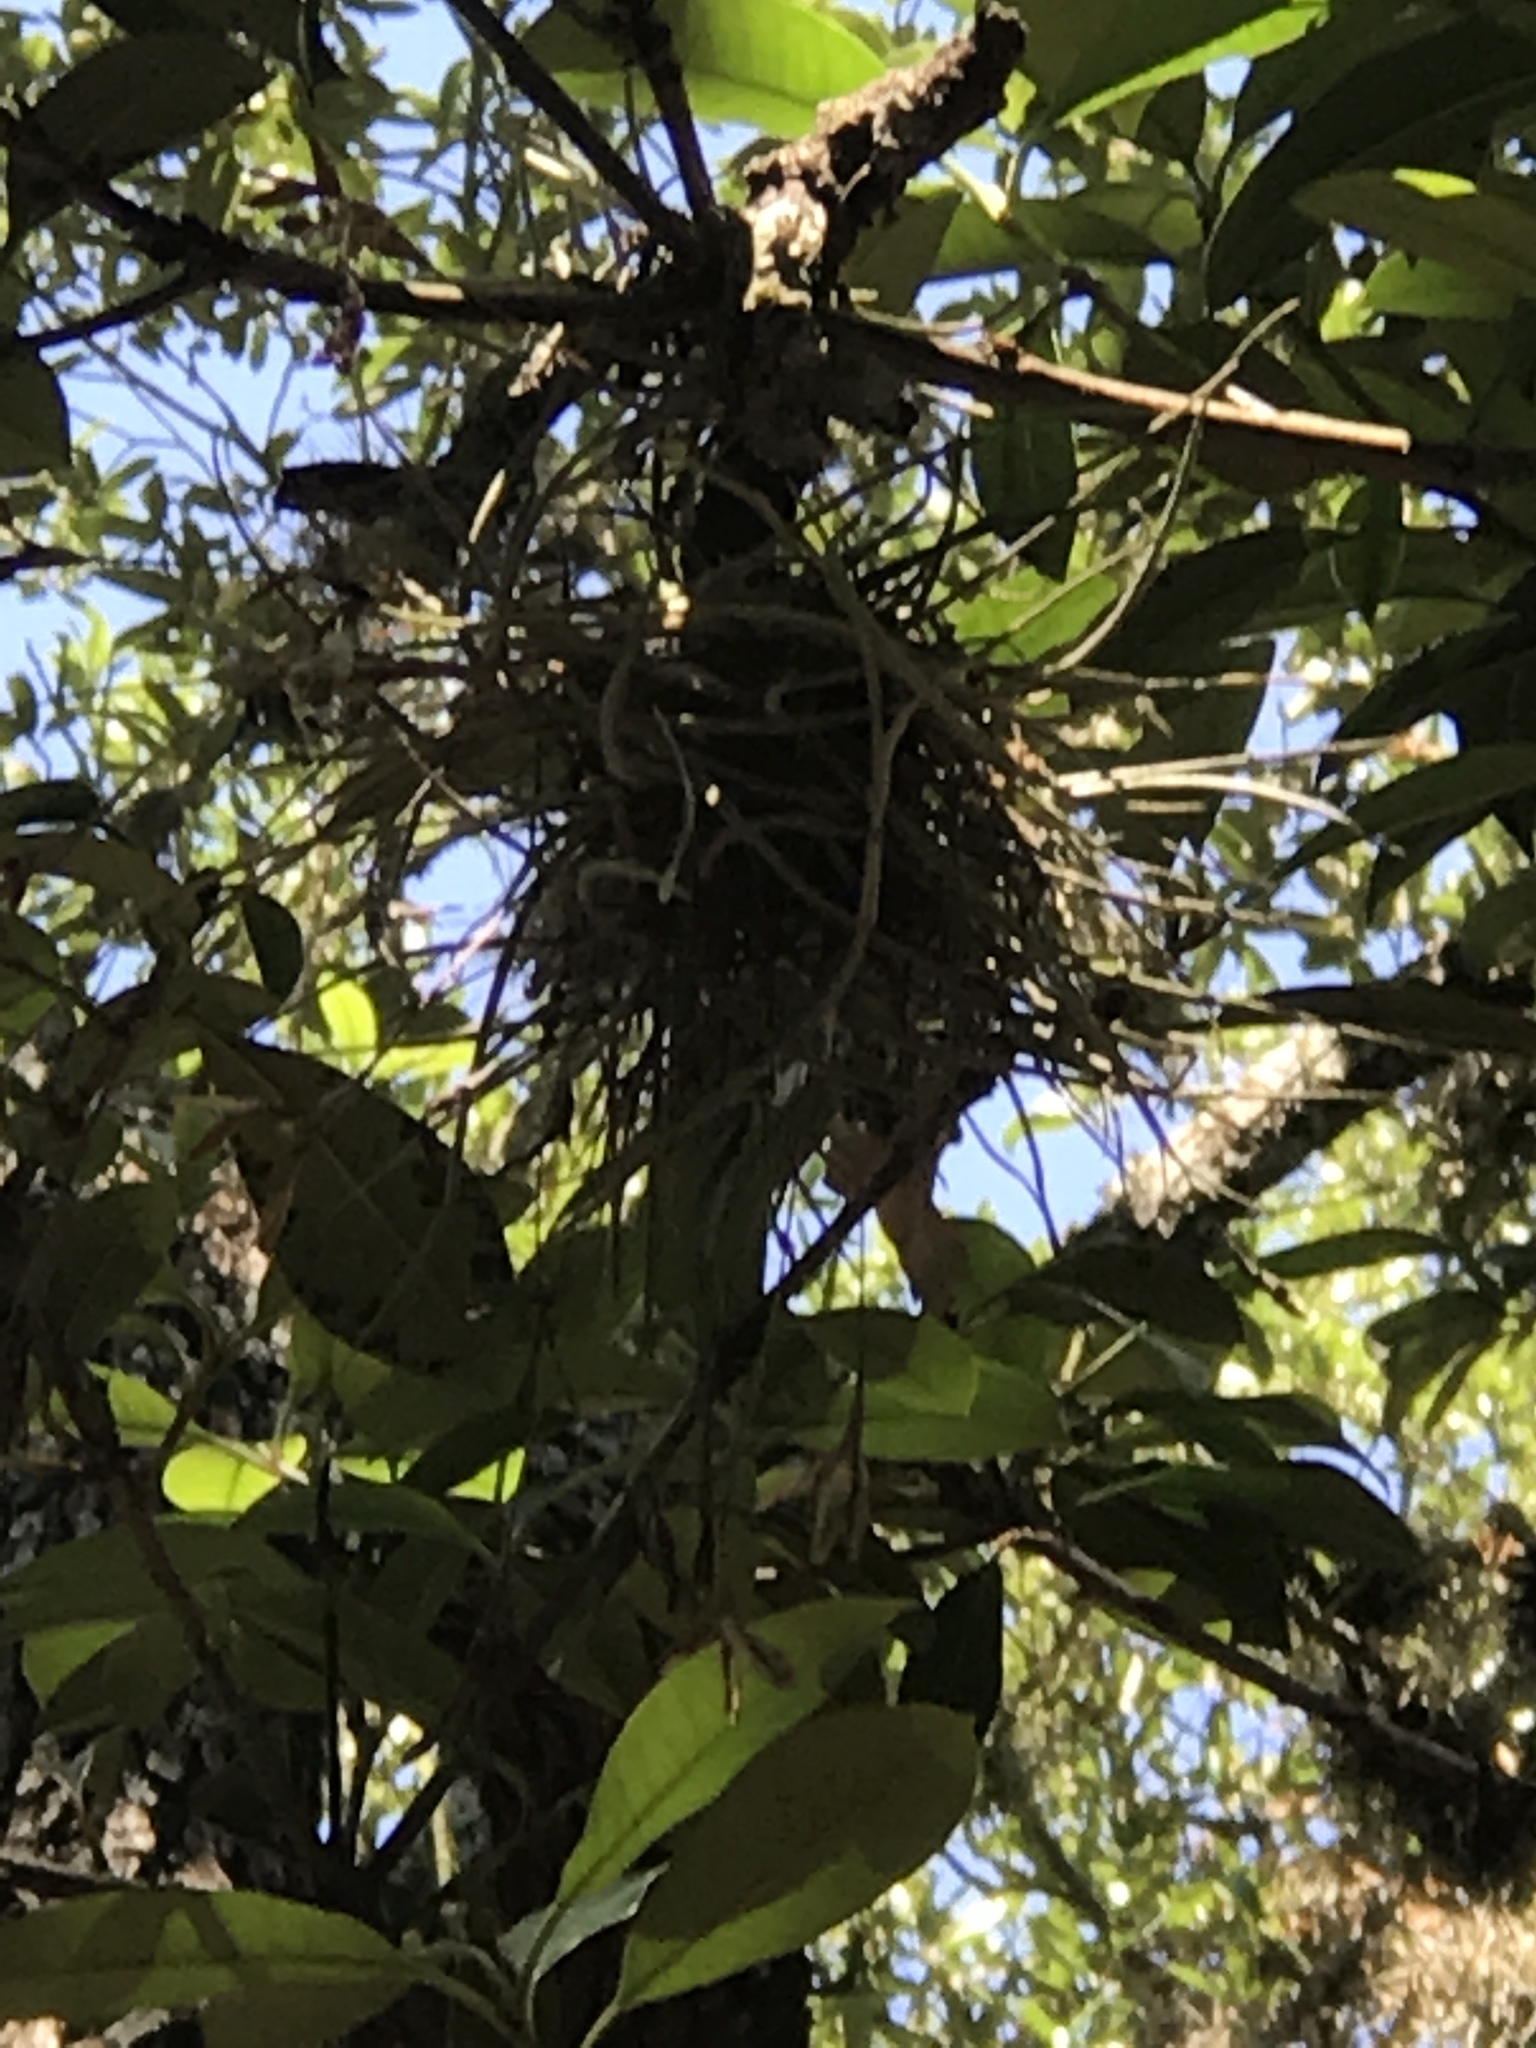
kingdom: Plantae
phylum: Tracheophyta
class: Liliopsida
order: Poales
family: Bromeliaceae
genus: Tillandsia
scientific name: Tillandsia recurvata
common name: Small ballmoss
